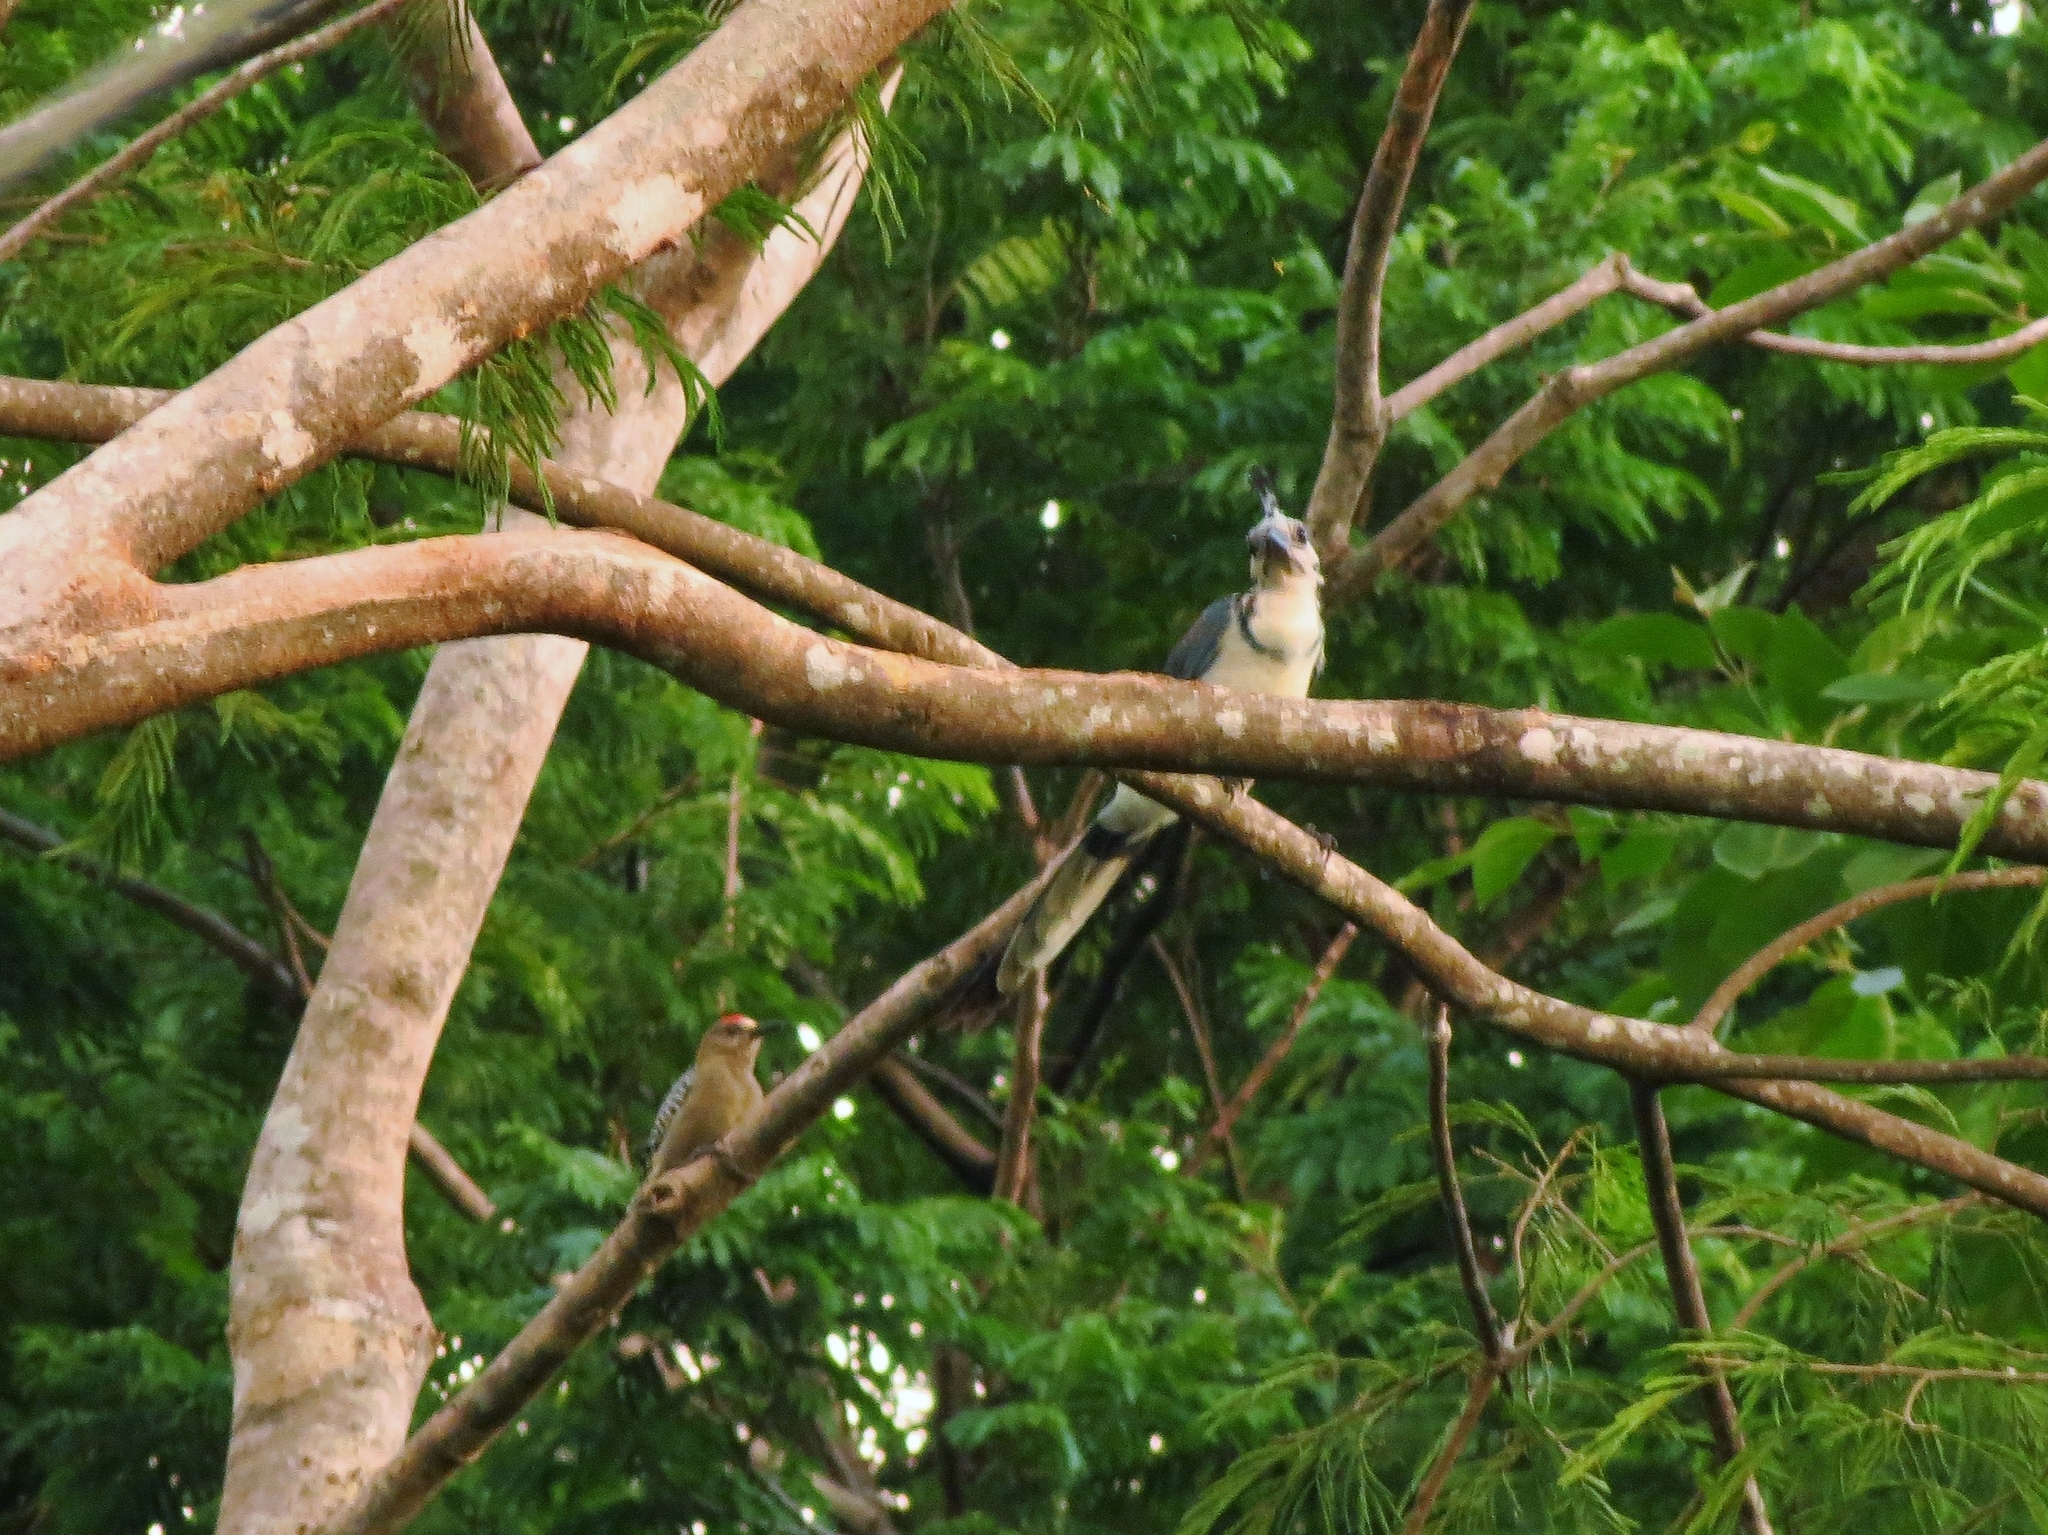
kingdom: Animalia
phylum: Chordata
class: Aves
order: Passeriformes
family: Corvidae
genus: Calocitta
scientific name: Calocitta formosa
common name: White-throated magpie-jay
